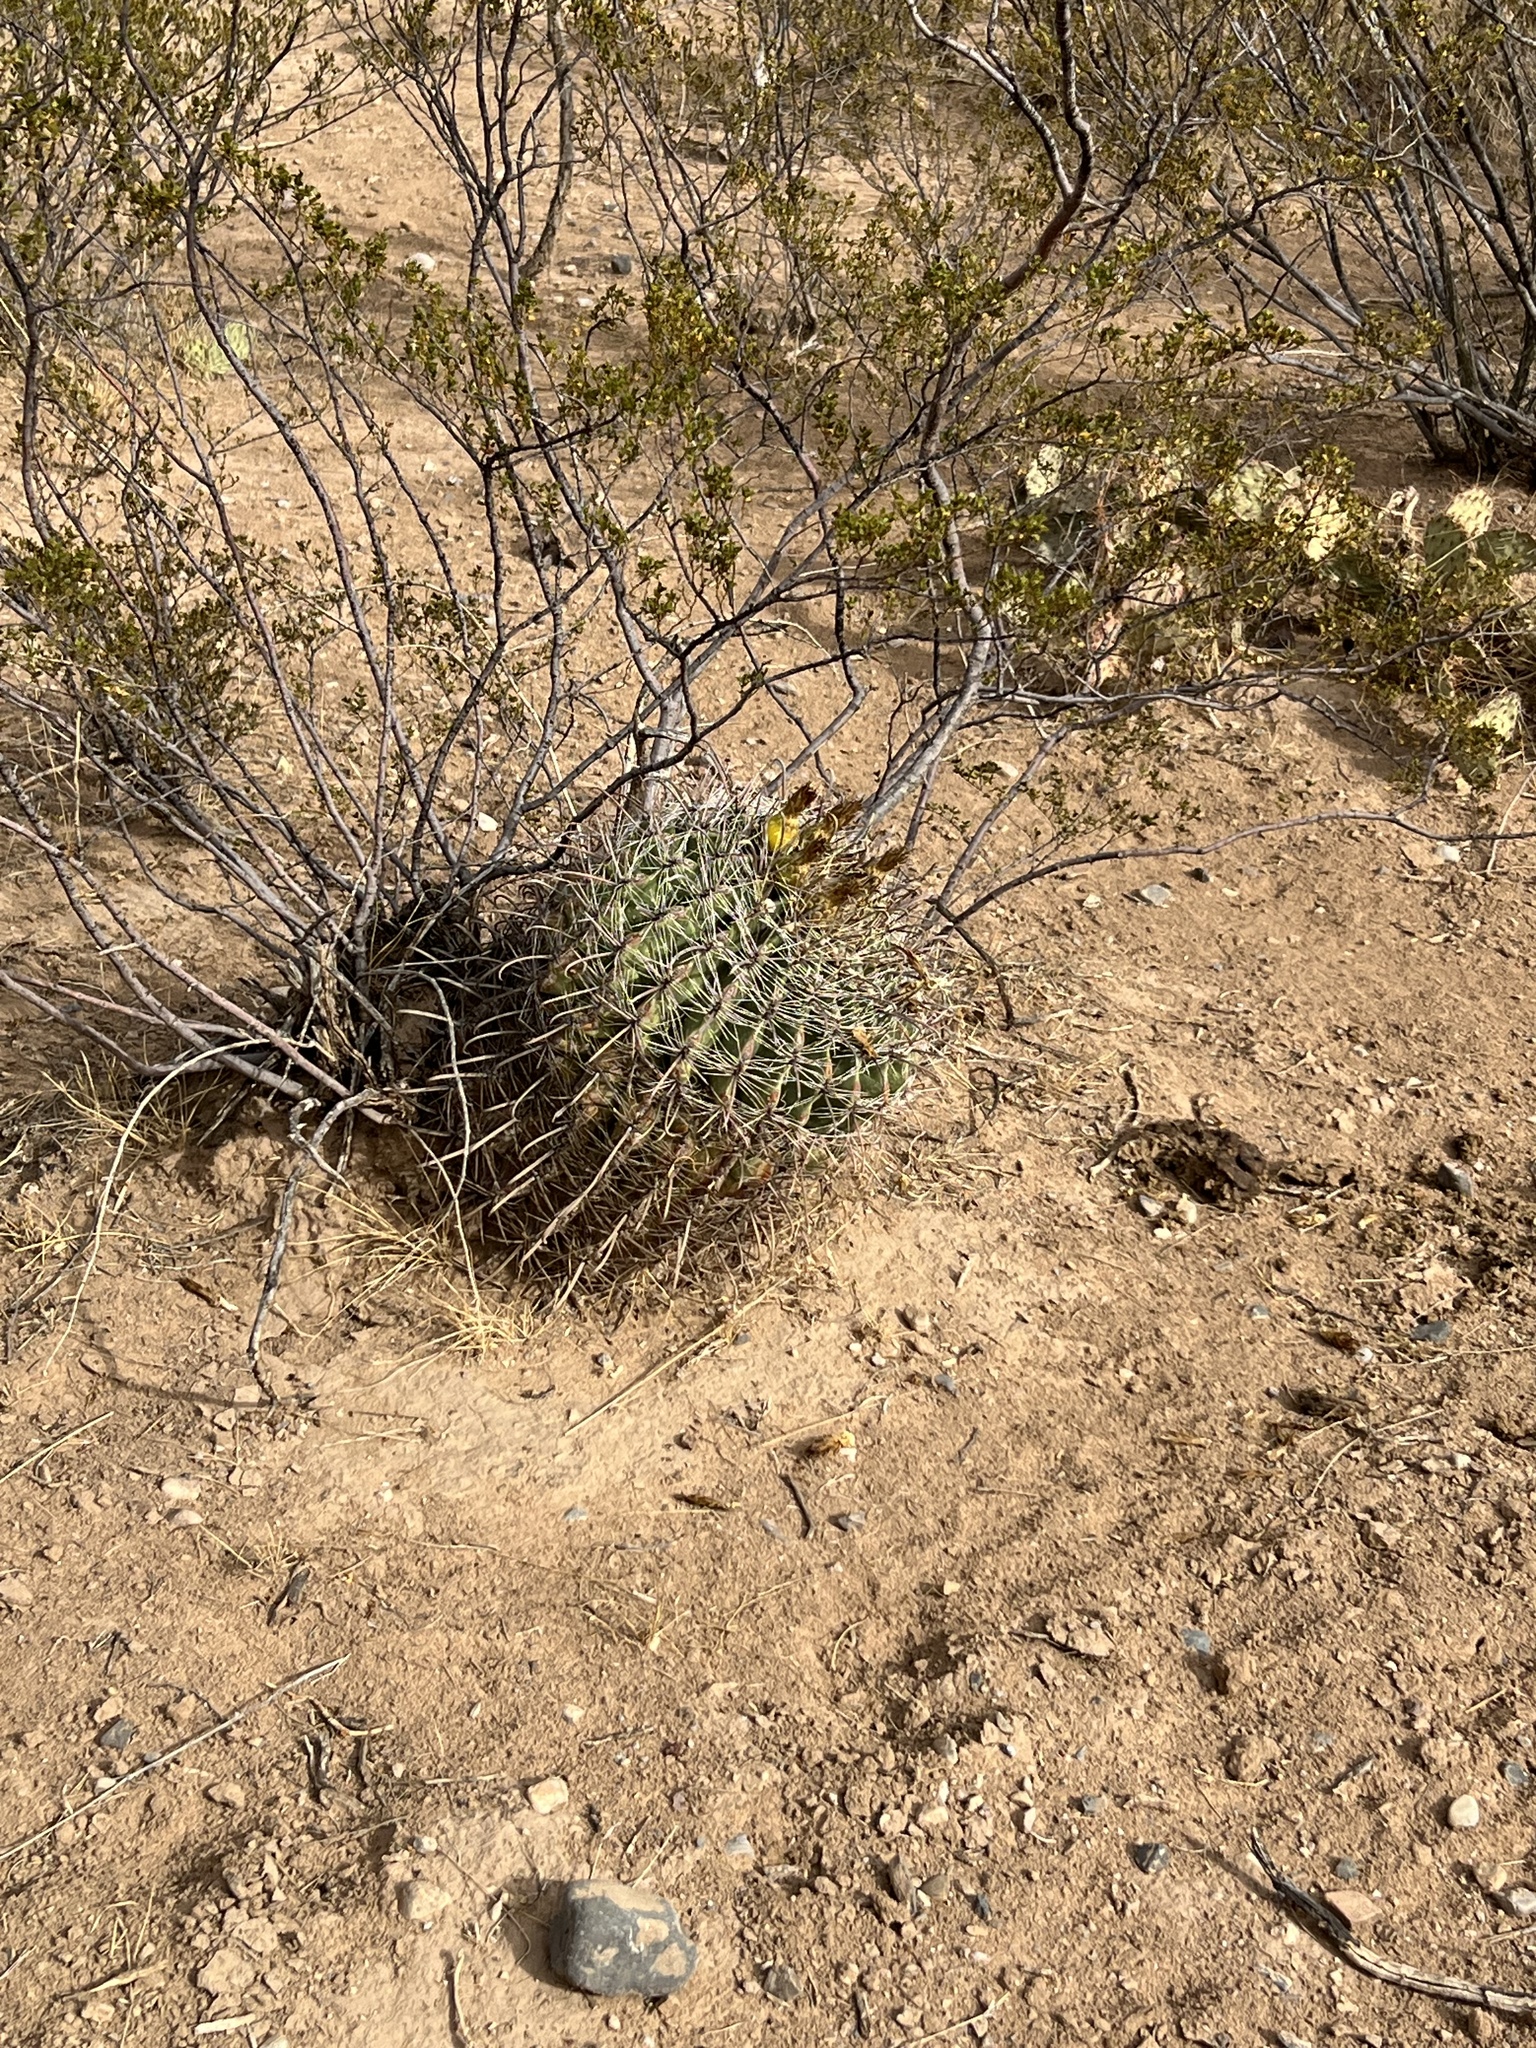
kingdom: Plantae
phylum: Tracheophyta
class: Magnoliopsida
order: Caryophyllales
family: Cactaceae
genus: Ferocactus
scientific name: Ferocactus wislizeni
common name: Candy barrel cactus
